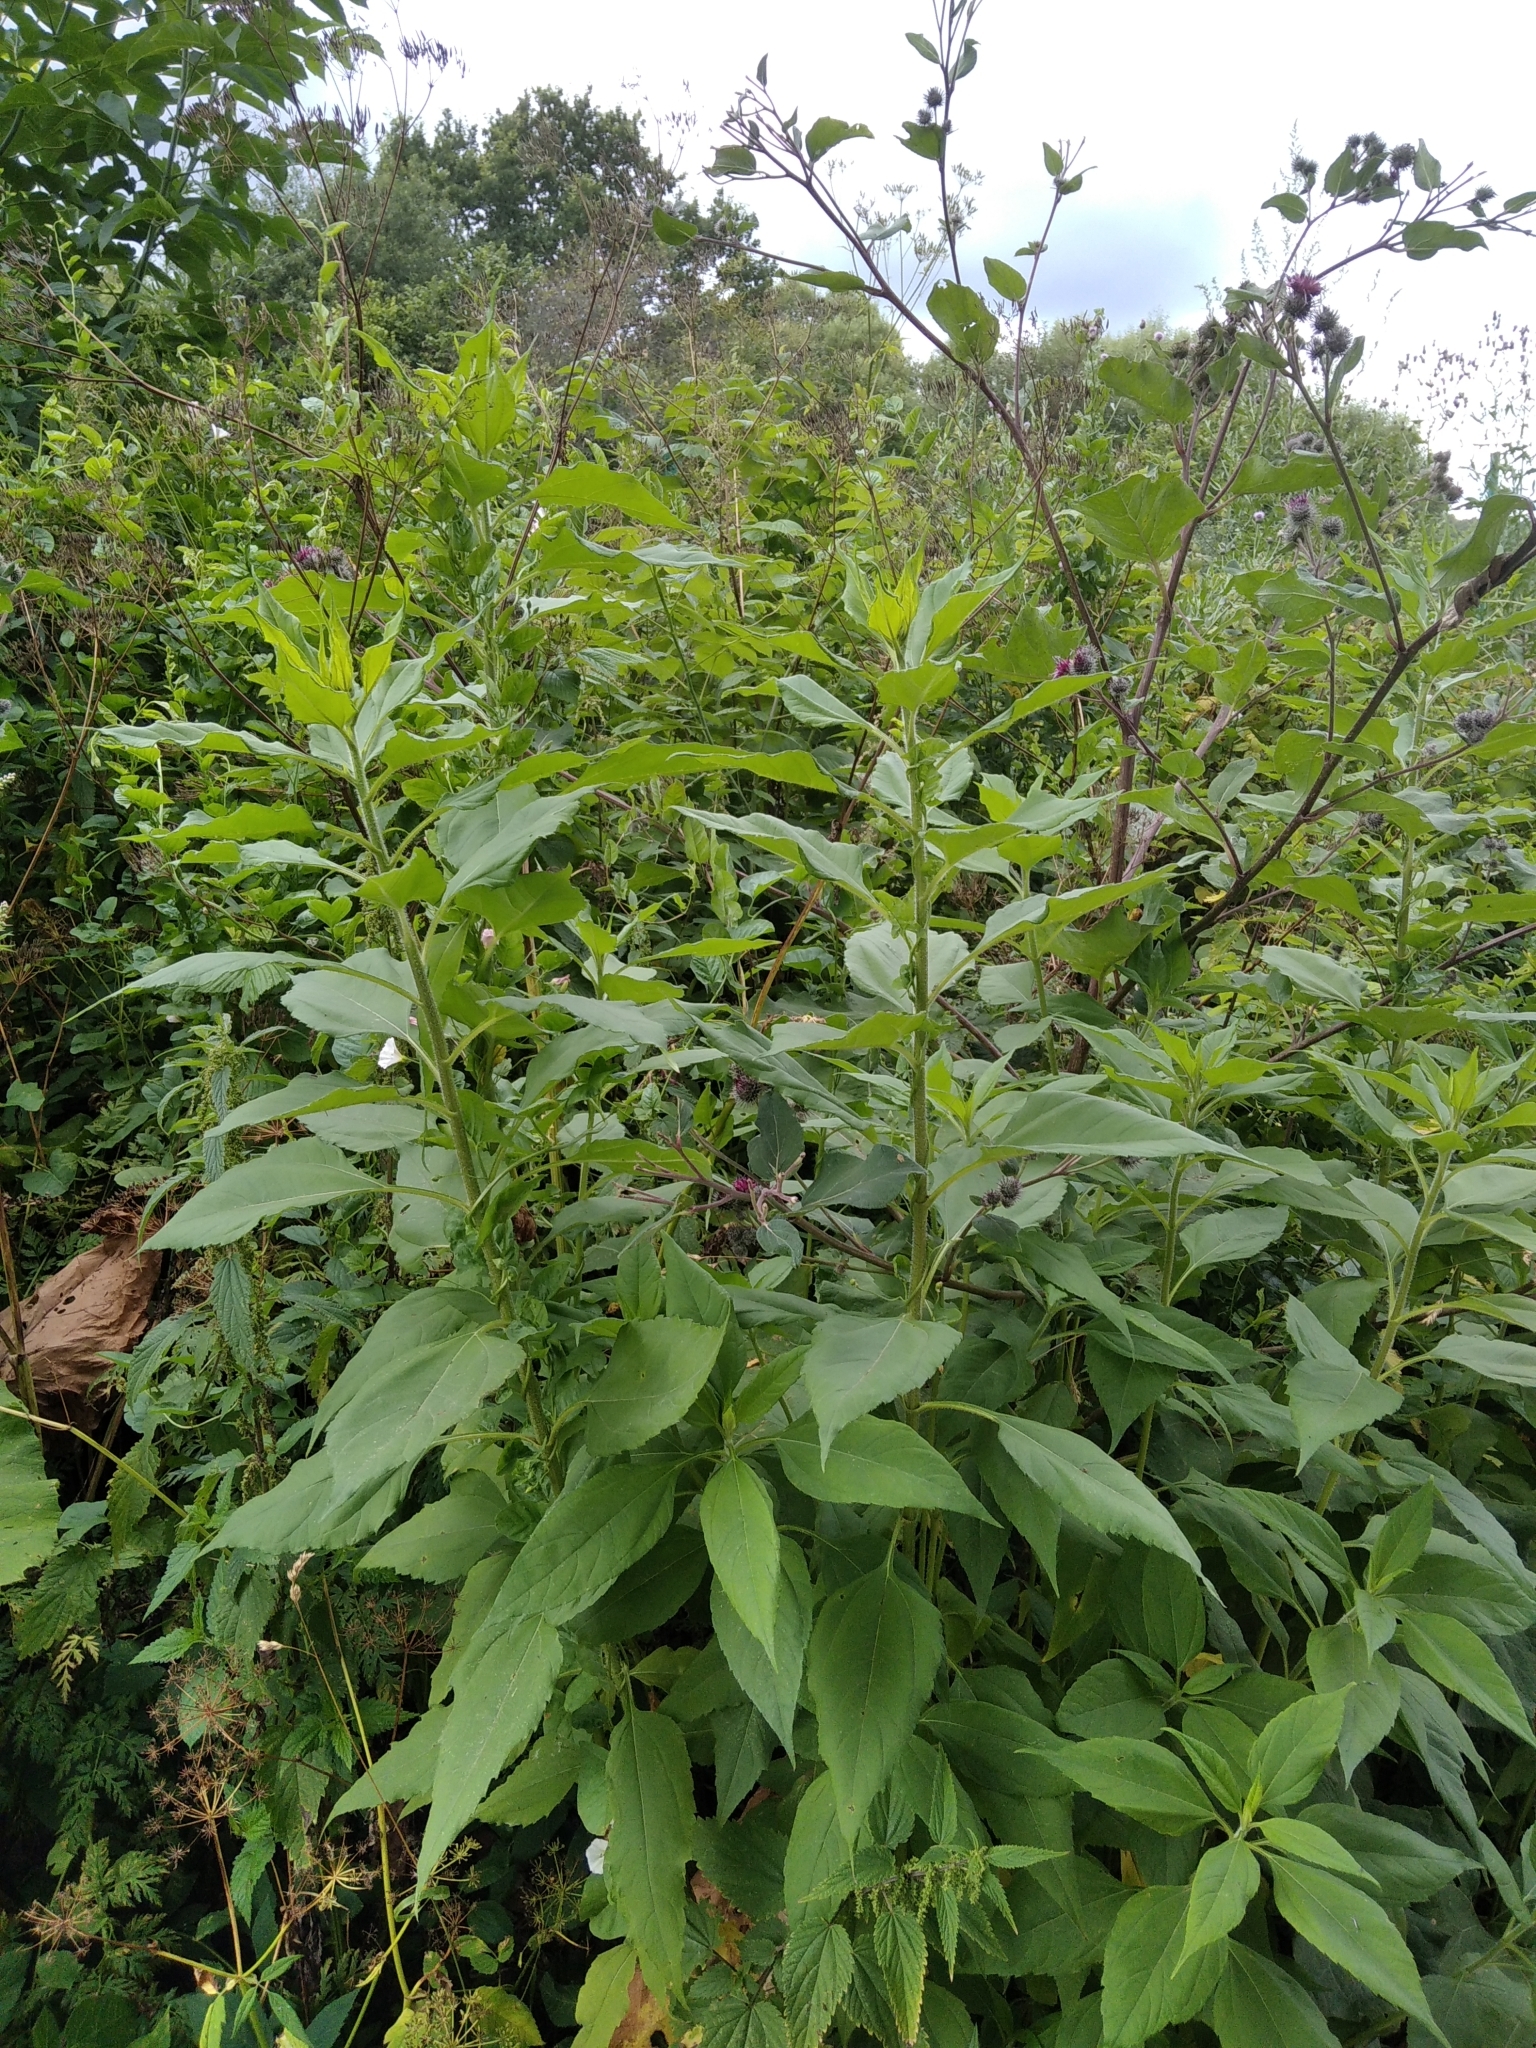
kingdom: Plantae
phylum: Tracheophyta
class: Magnoliopsida
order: Asterales
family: Asteraceae
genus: Helianthus
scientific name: Helianthus tuberosus
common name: Jerusalem artichoke
